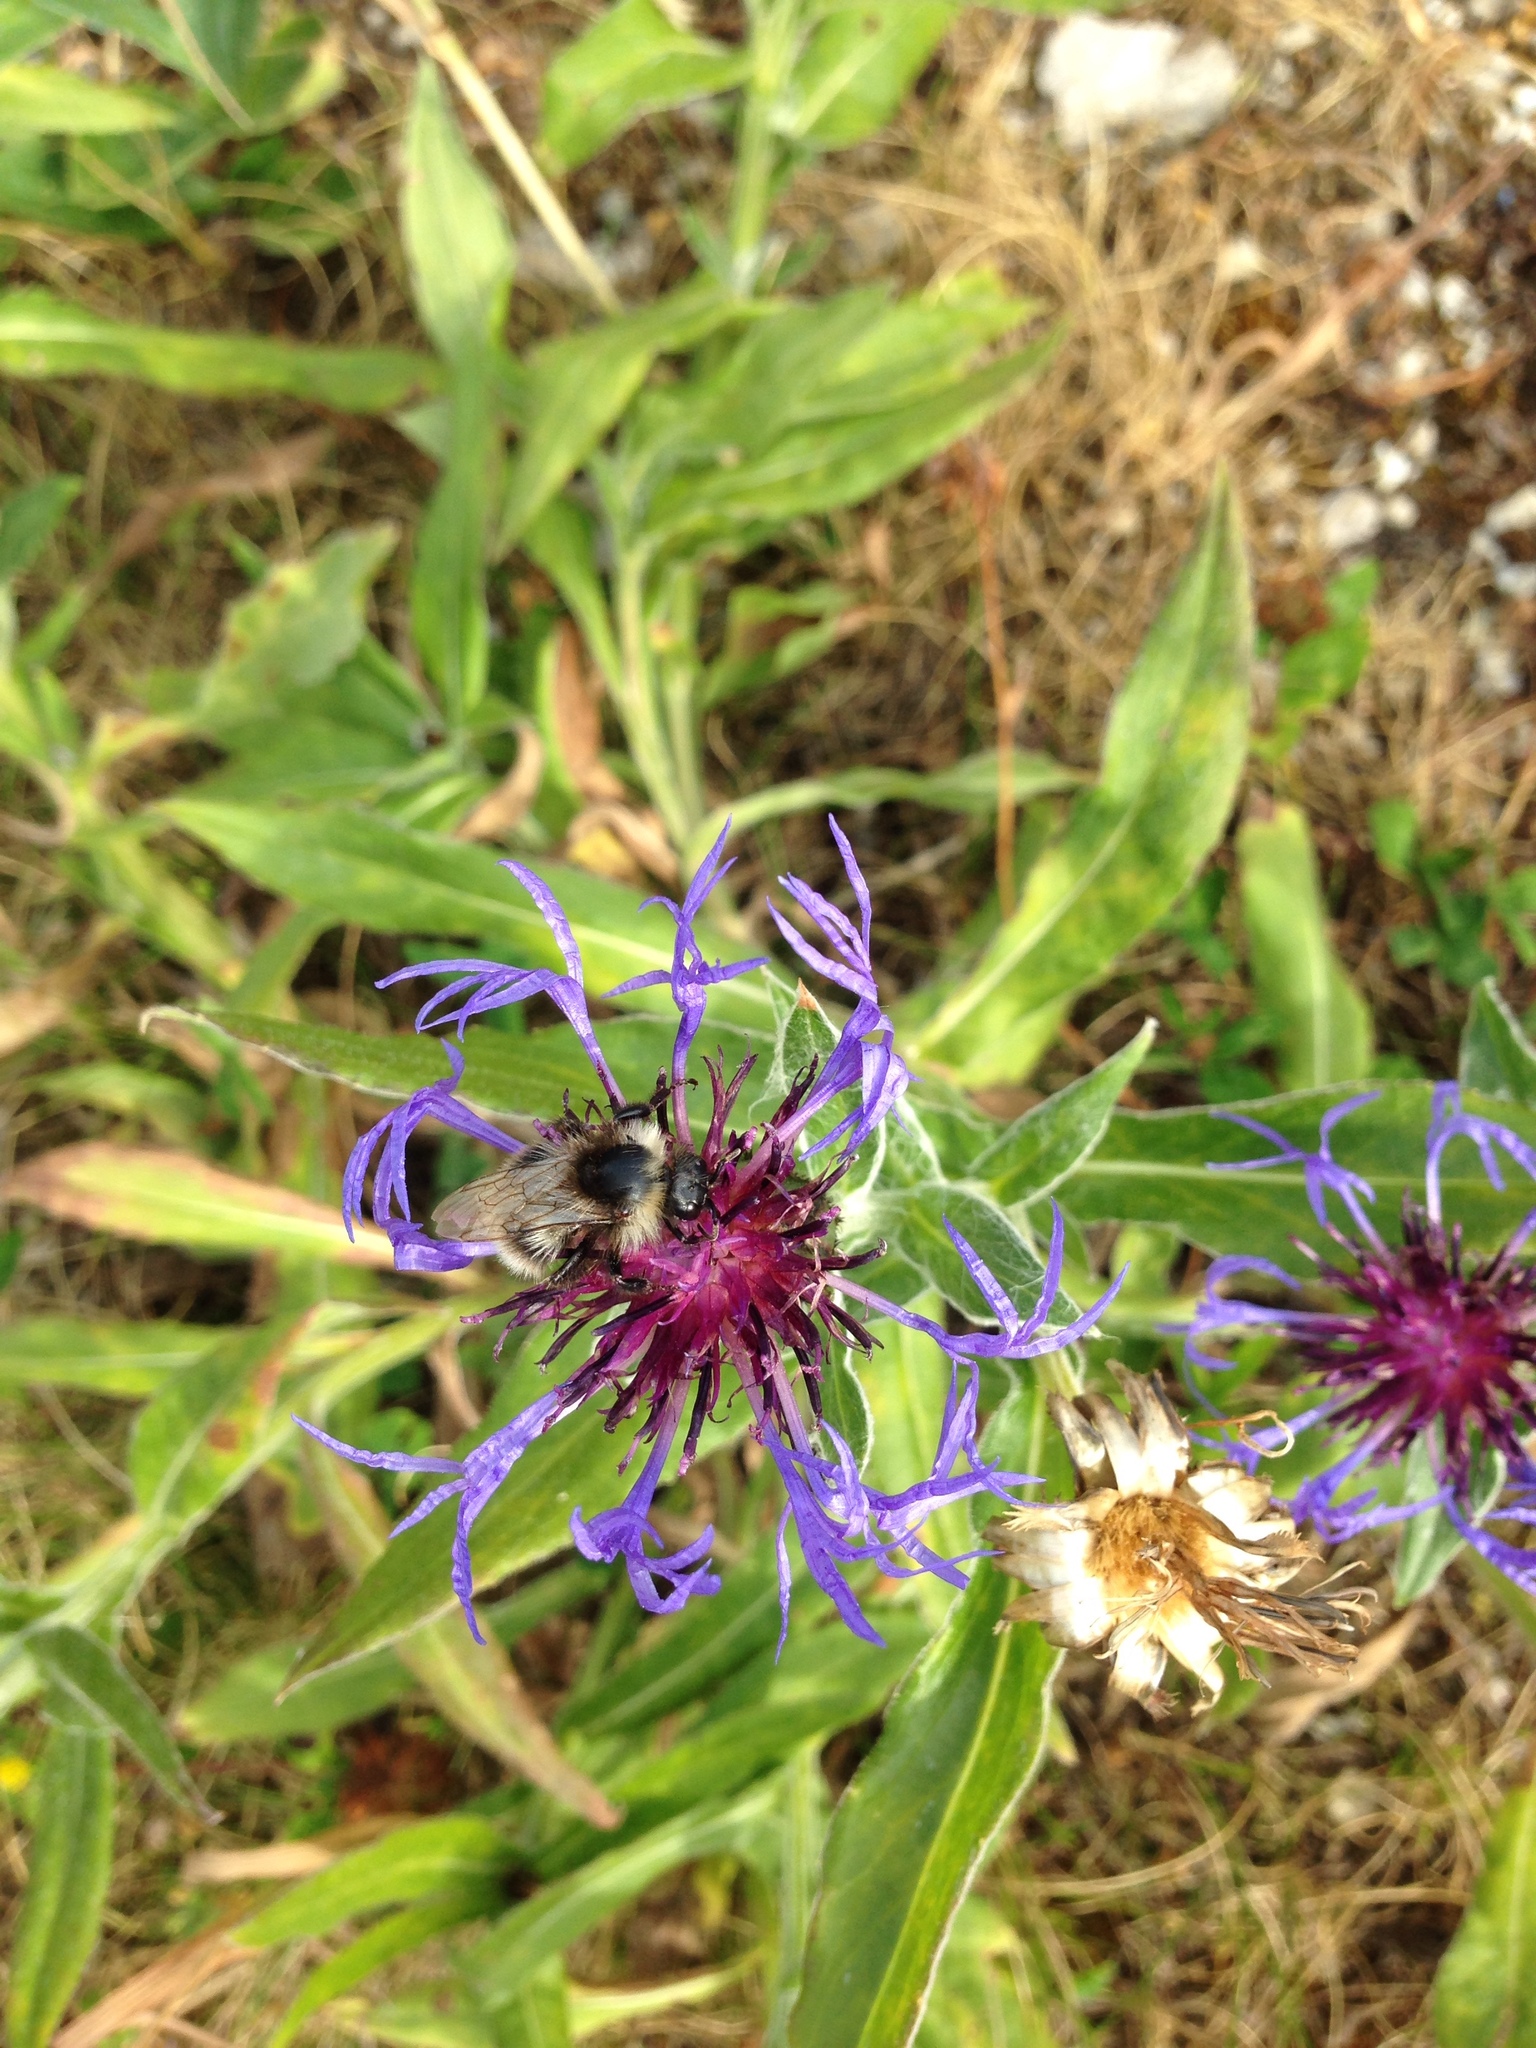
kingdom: Plantae
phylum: Tracheophyta
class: Magnoliopsida
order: Asterales
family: Asteraceae
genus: Centaurea
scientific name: Centaurea montana
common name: Perennial cornflower
